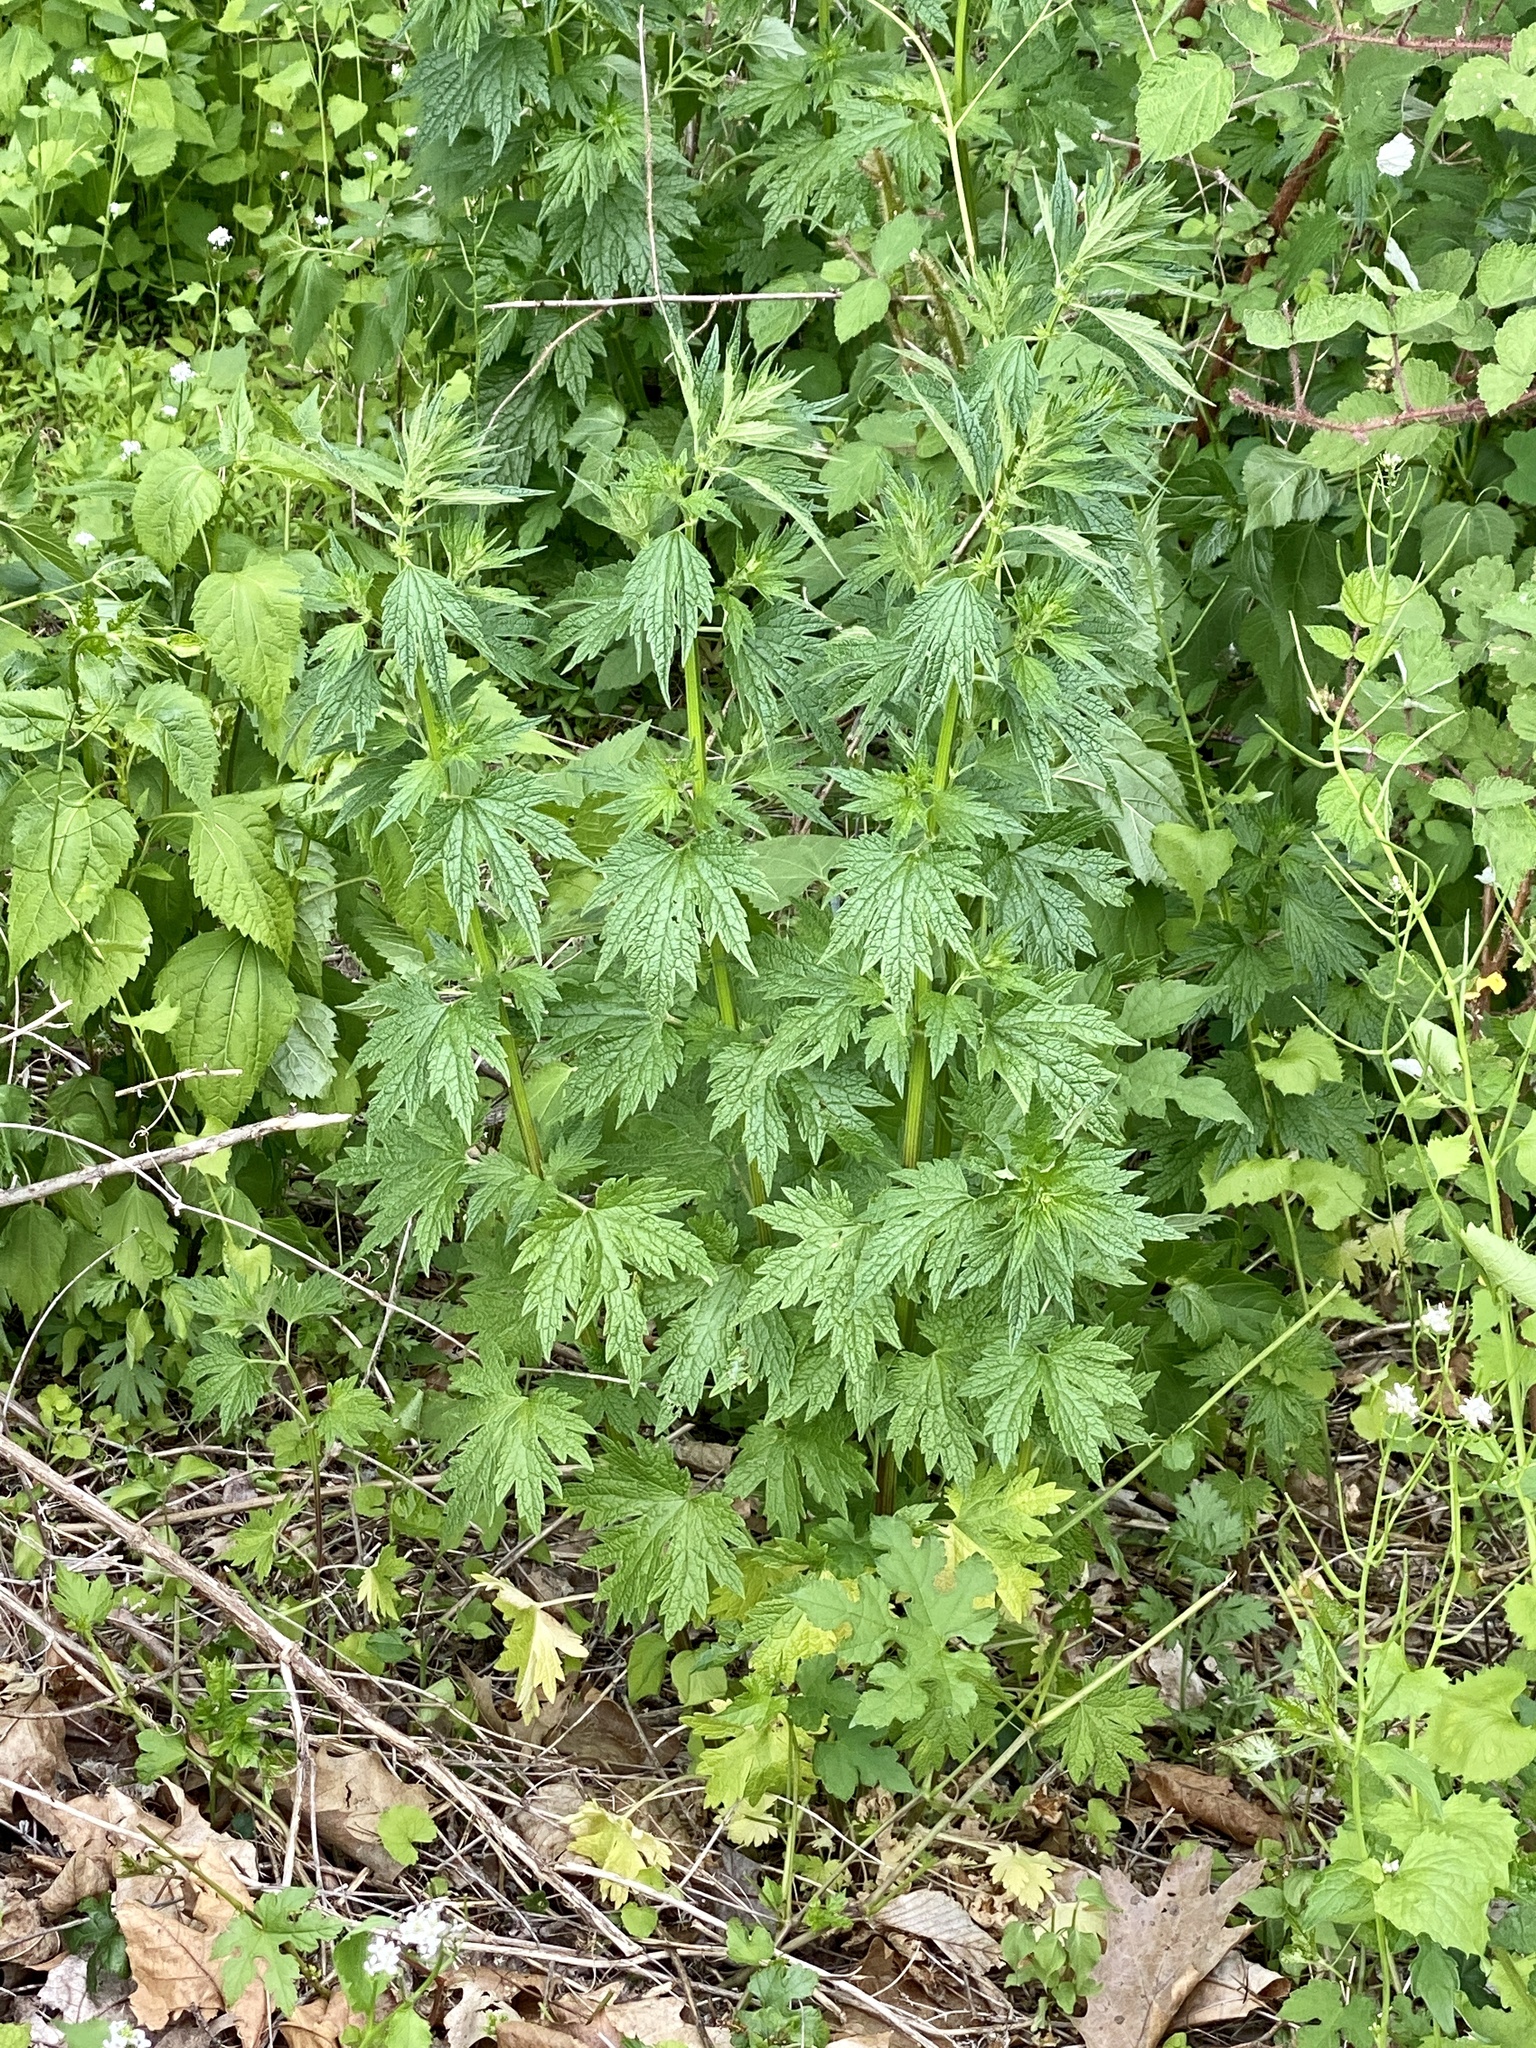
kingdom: Plantae
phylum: Tracheophyta
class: Magnoliopsida
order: Lamiales
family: Lamiaceae
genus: Leonurus
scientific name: Leonurus cardiaca
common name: Motherwort
